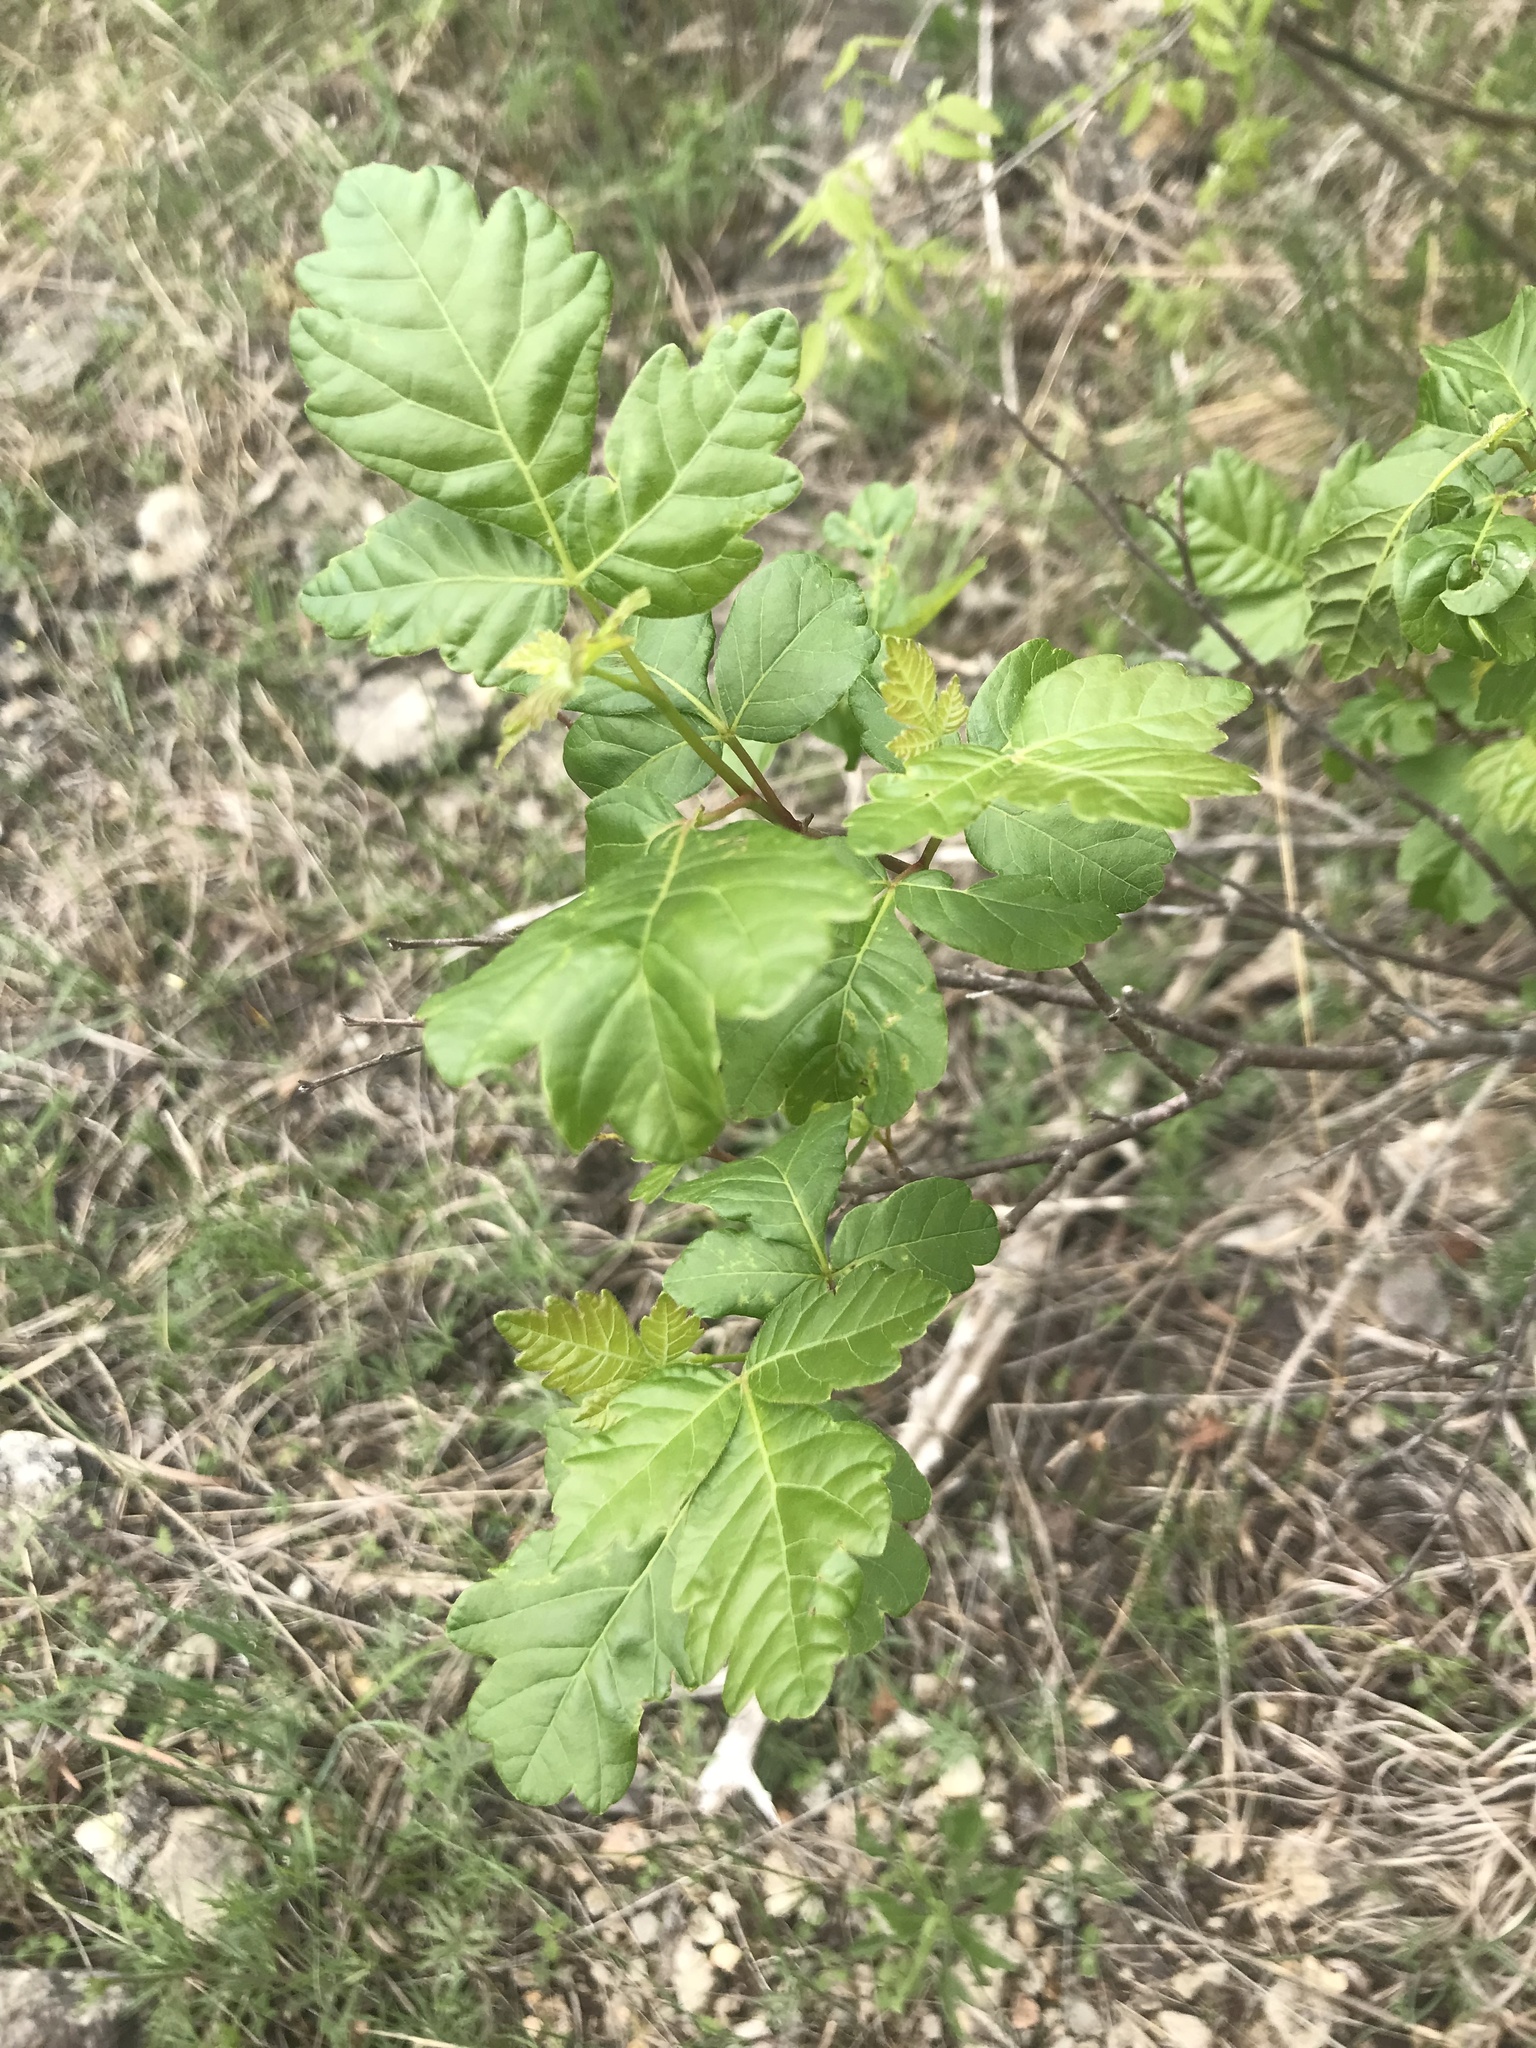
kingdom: Plantae
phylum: Tracheophyta
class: Magnoliopsida
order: Sapindales
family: Anacardiaceae
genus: Rhus
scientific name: Rhus aromatica
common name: Aromatic sumac
